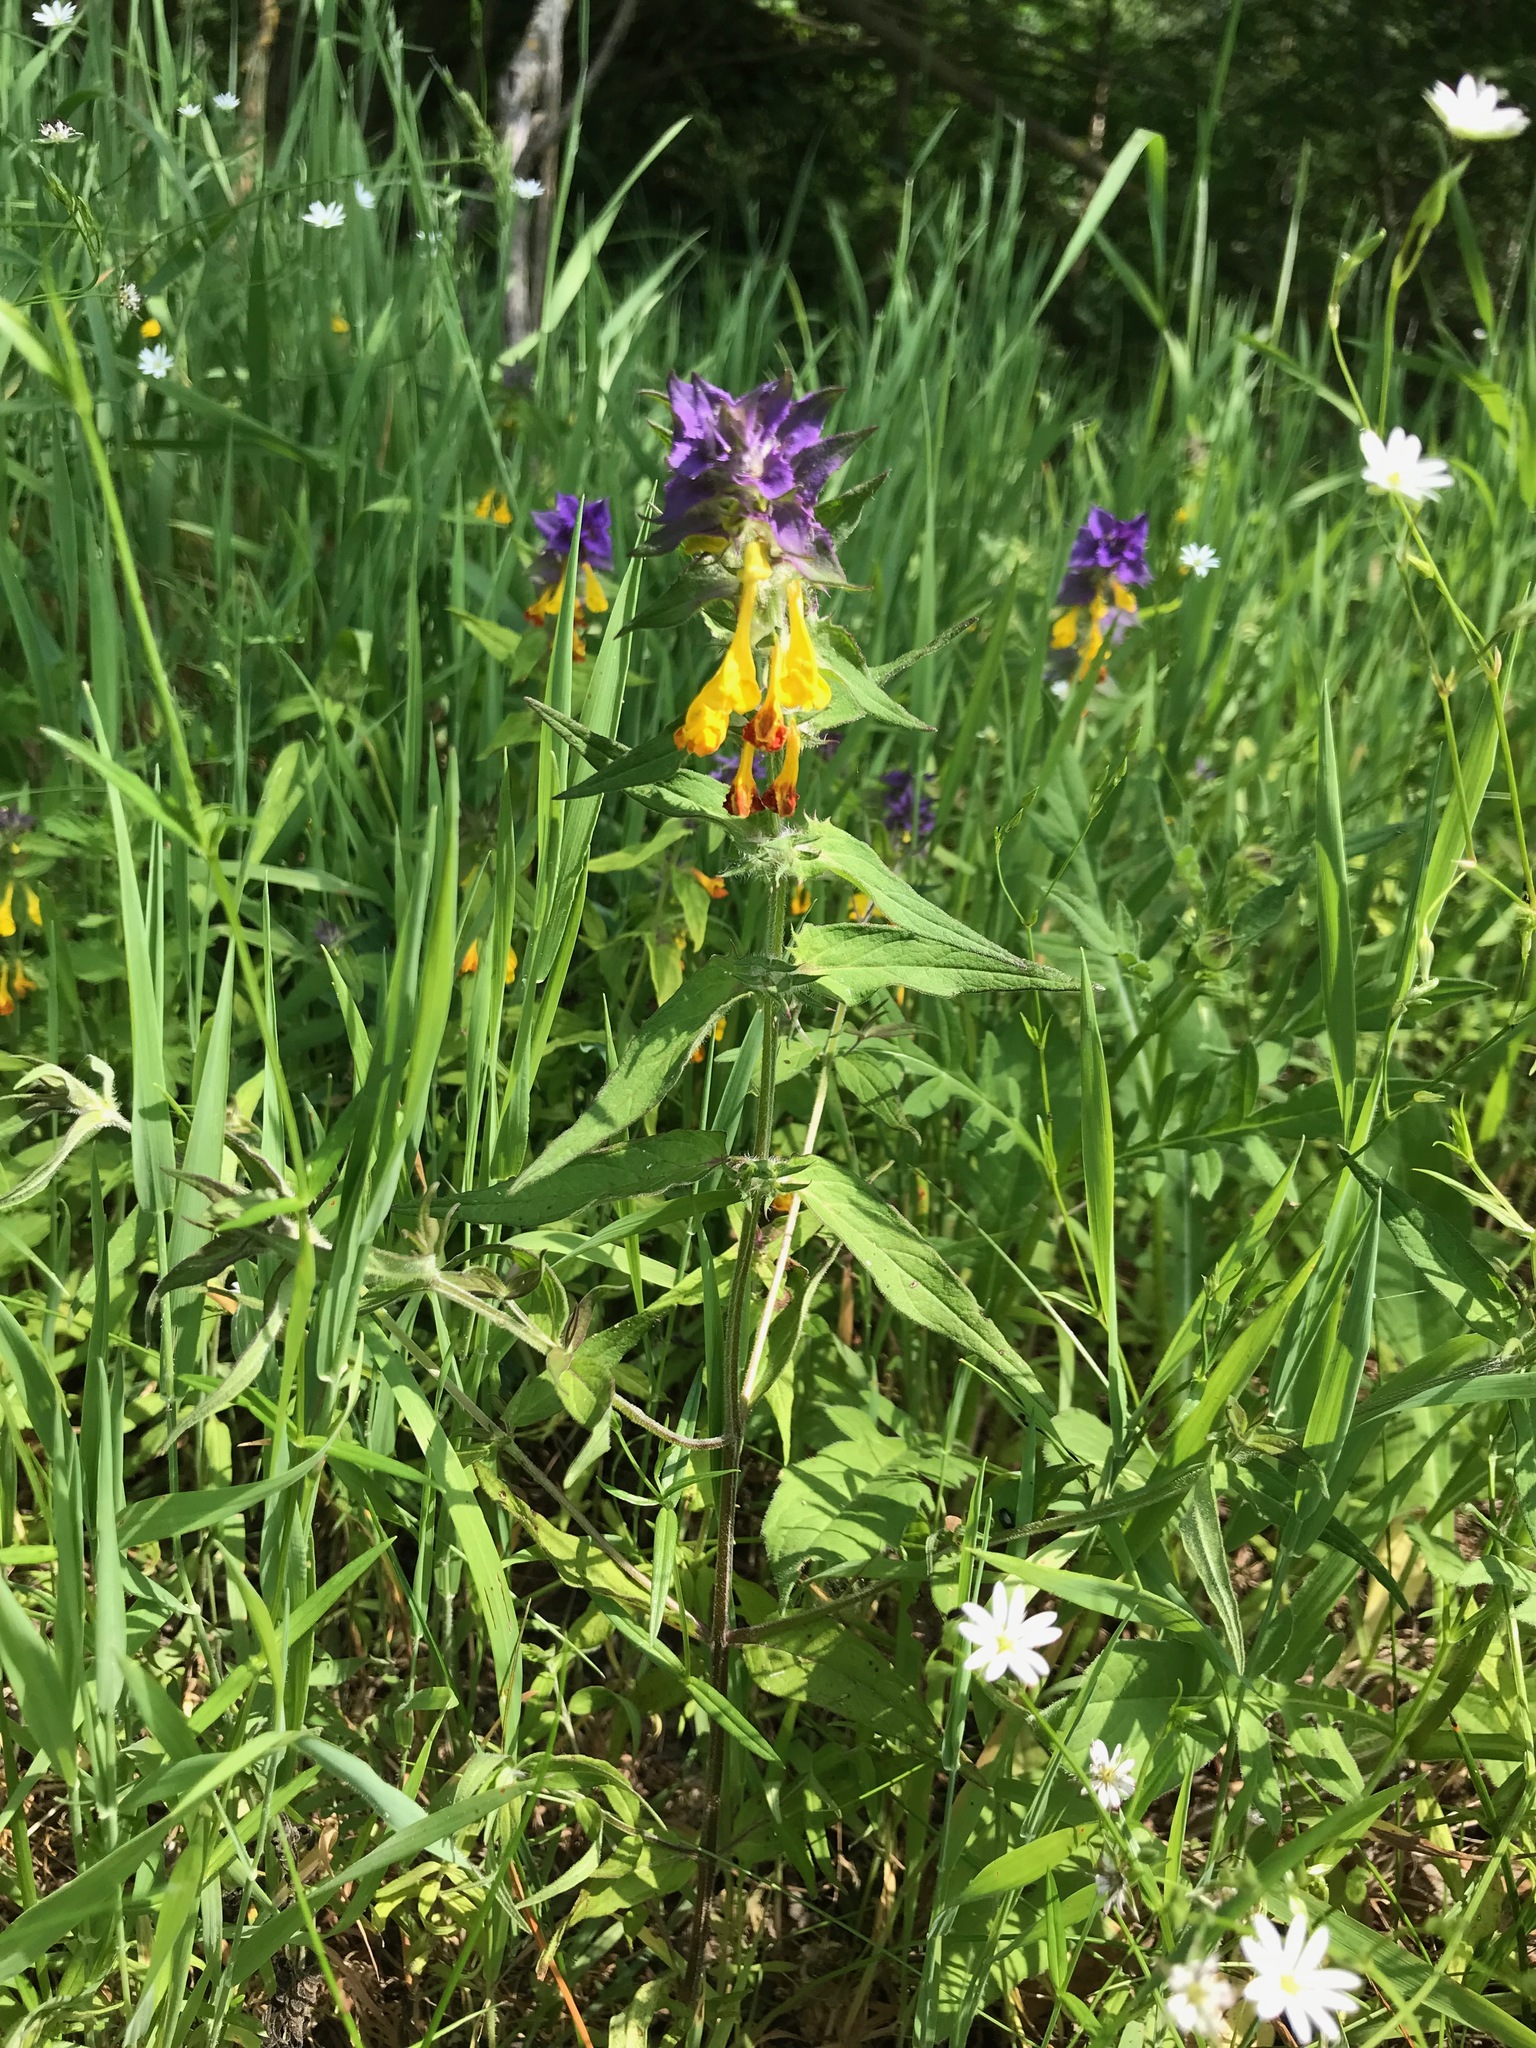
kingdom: Plantae
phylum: Tracheophyta
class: Magnoliopsida
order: Lamiales
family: Orobanchaceae
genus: Melampyrum
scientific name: Melampyrum nemorosum
